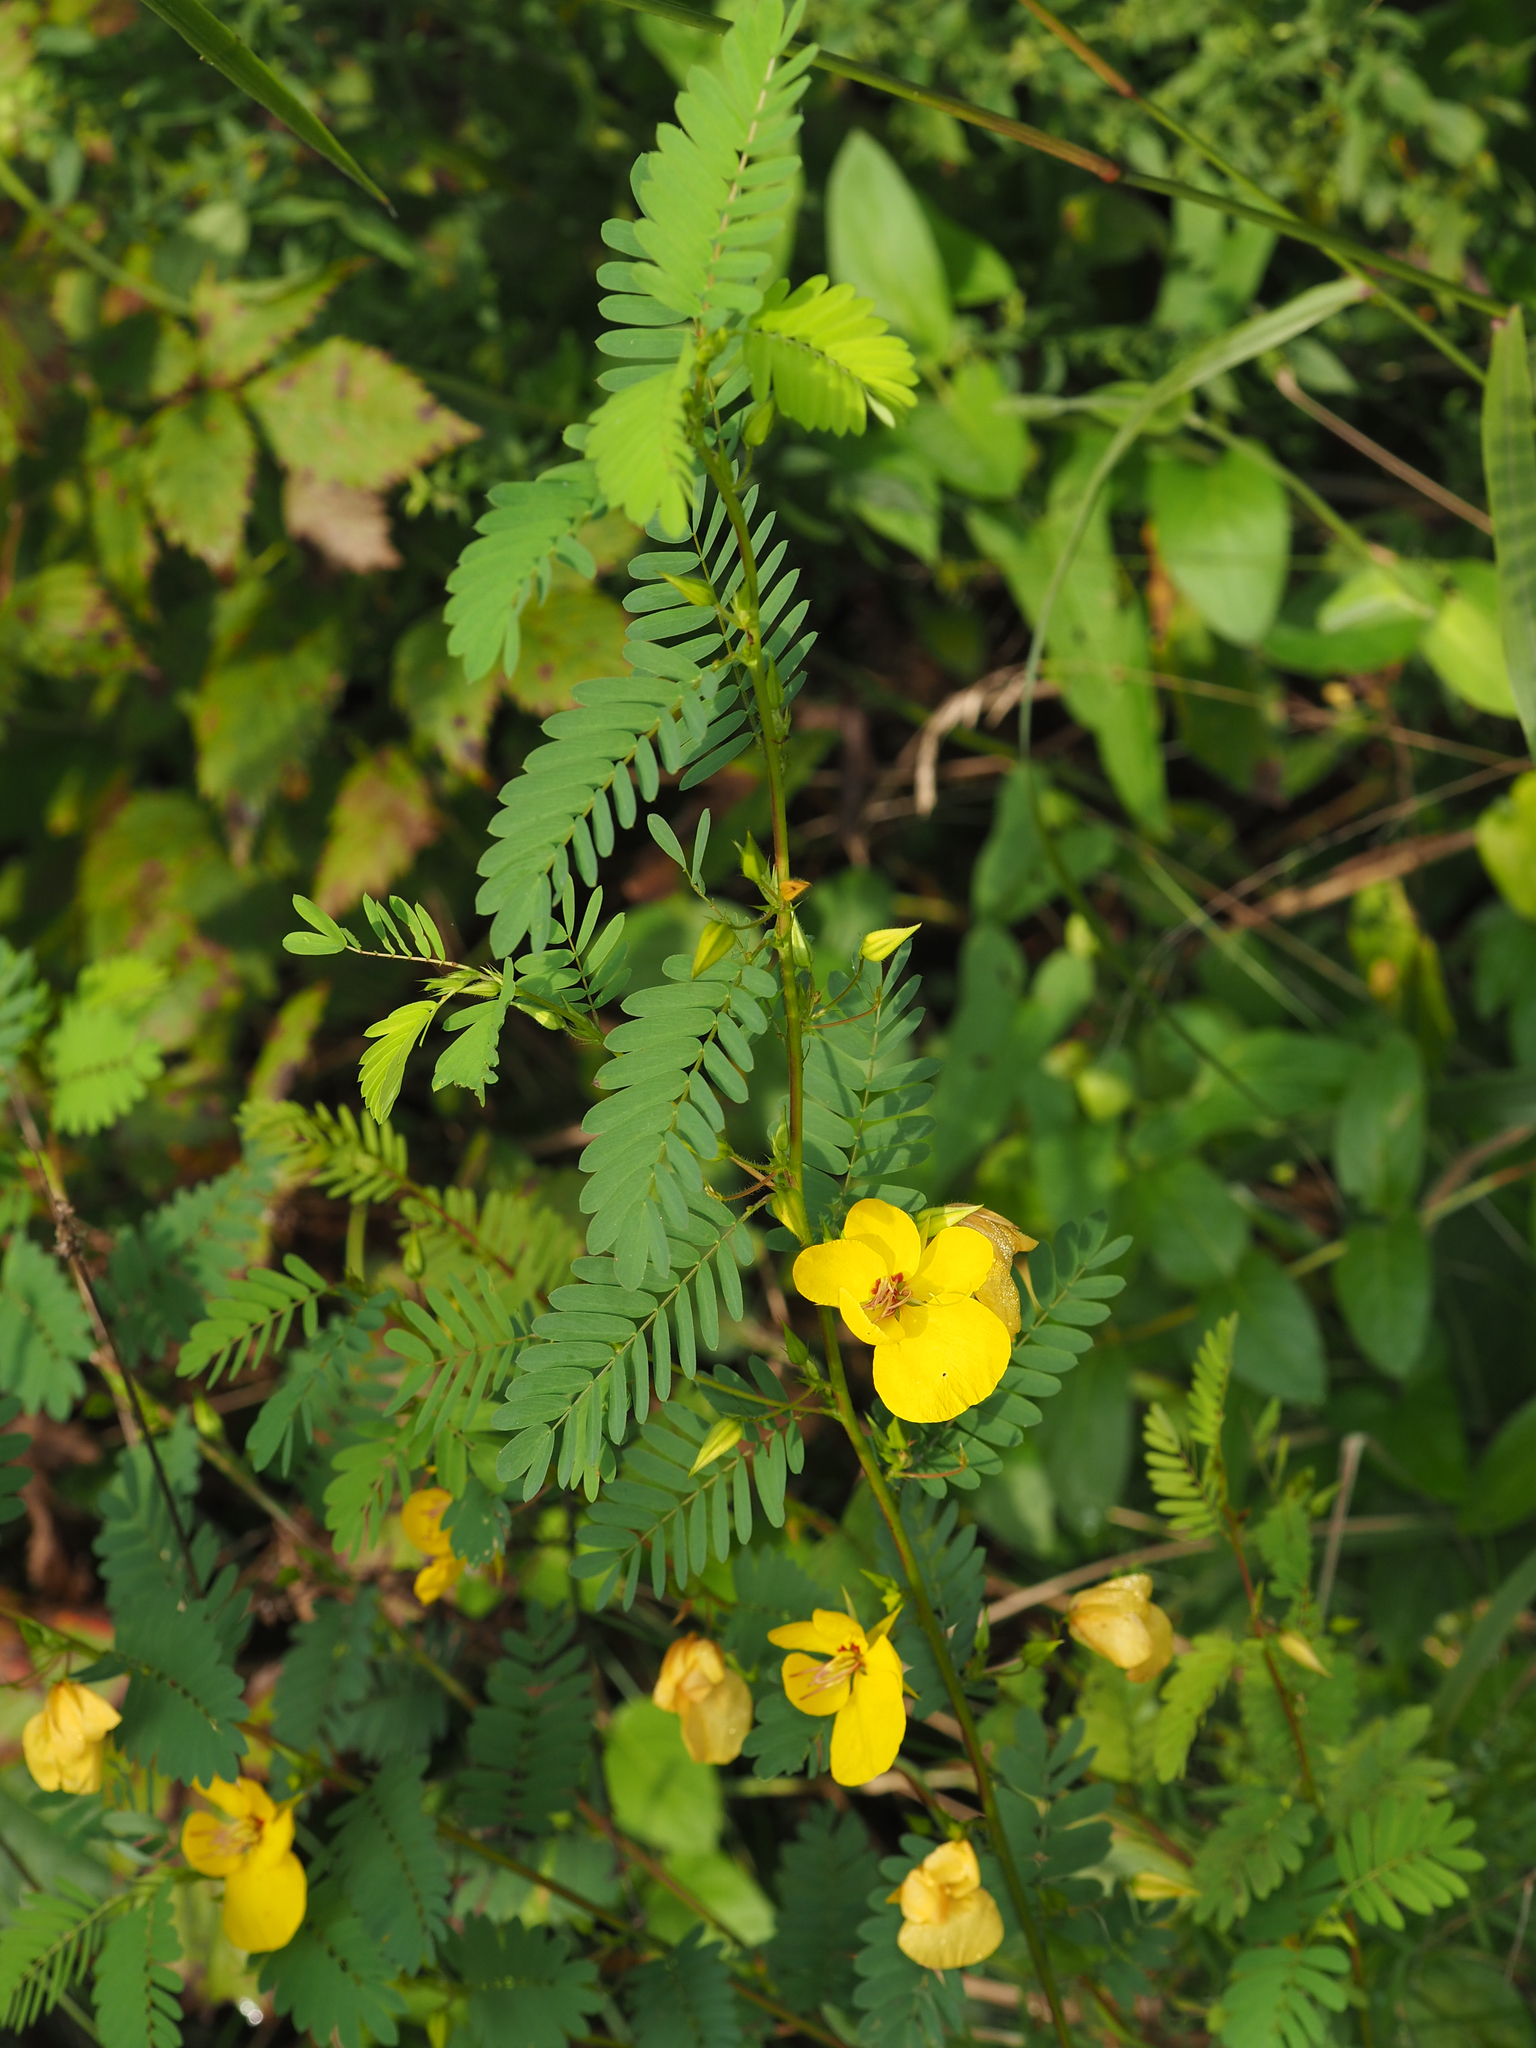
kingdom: Plantae
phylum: Tracheophyta
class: Magnoliopsida
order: Fabales
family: Fabaceae
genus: Chamaecrista
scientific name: Chamaecrista fasciculata
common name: Golden cassia
